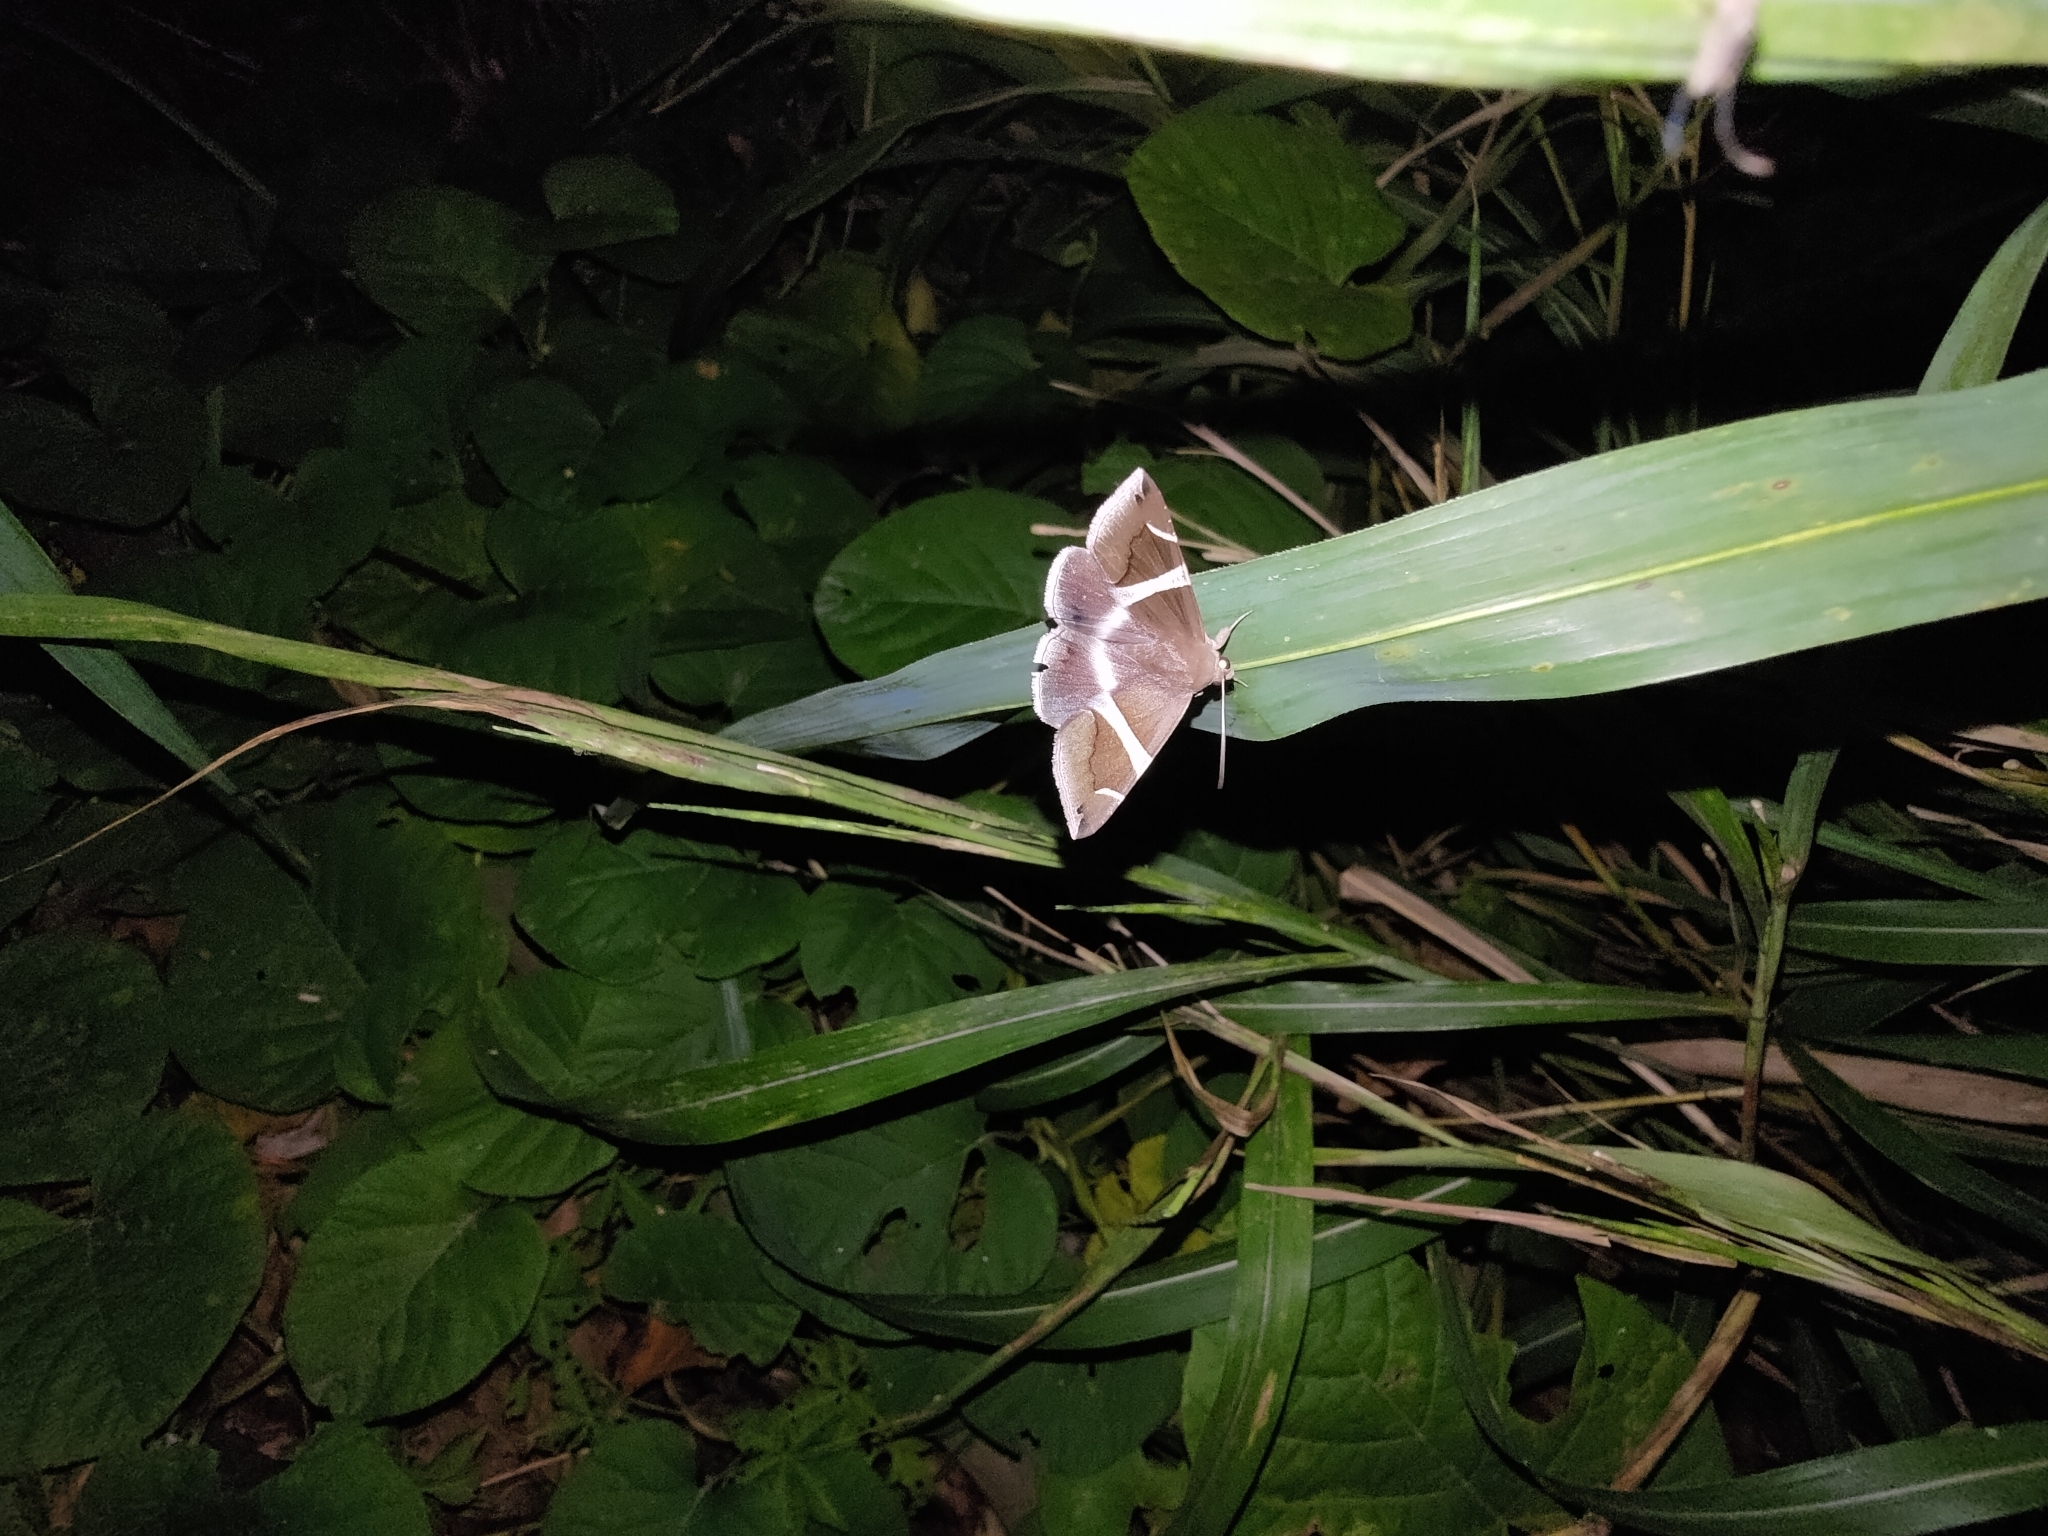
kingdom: Animalia
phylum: Arthropoda
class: Insecta
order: Lepidoptera
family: Erebidae
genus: Dysgonia
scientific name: Dysgonia praetermissa
